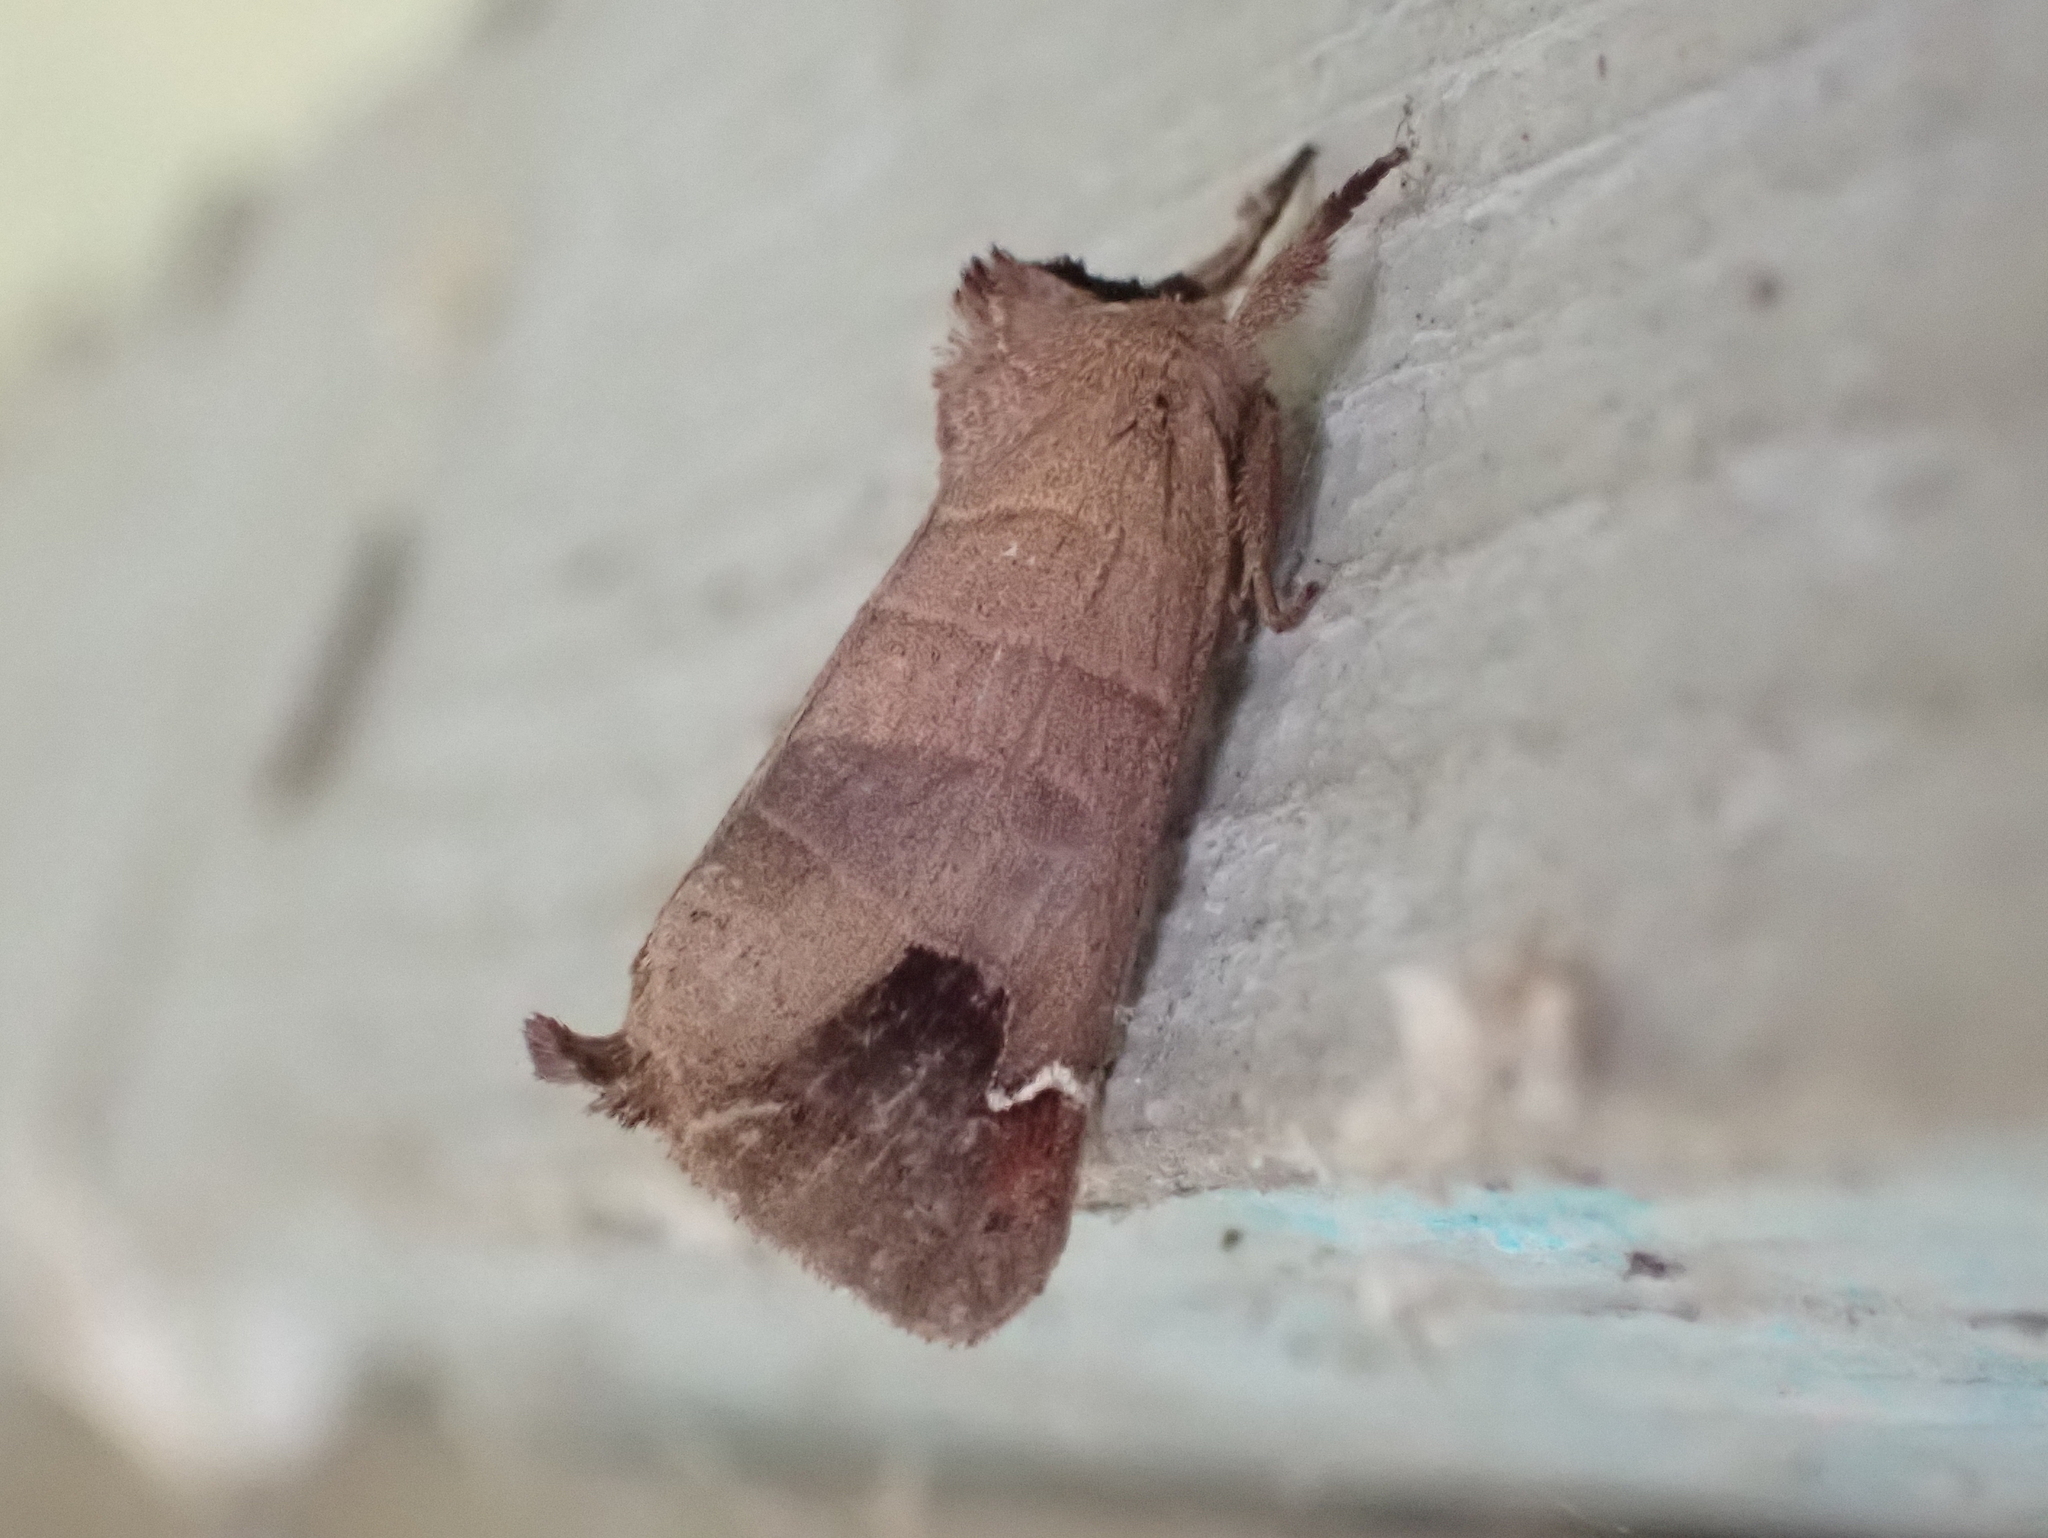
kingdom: Animalia
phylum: Arthropoda
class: Insecta
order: Lepidoptera
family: Notodontidae
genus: Clostera
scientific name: Clostera albosigma
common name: Sigmoid prominent
